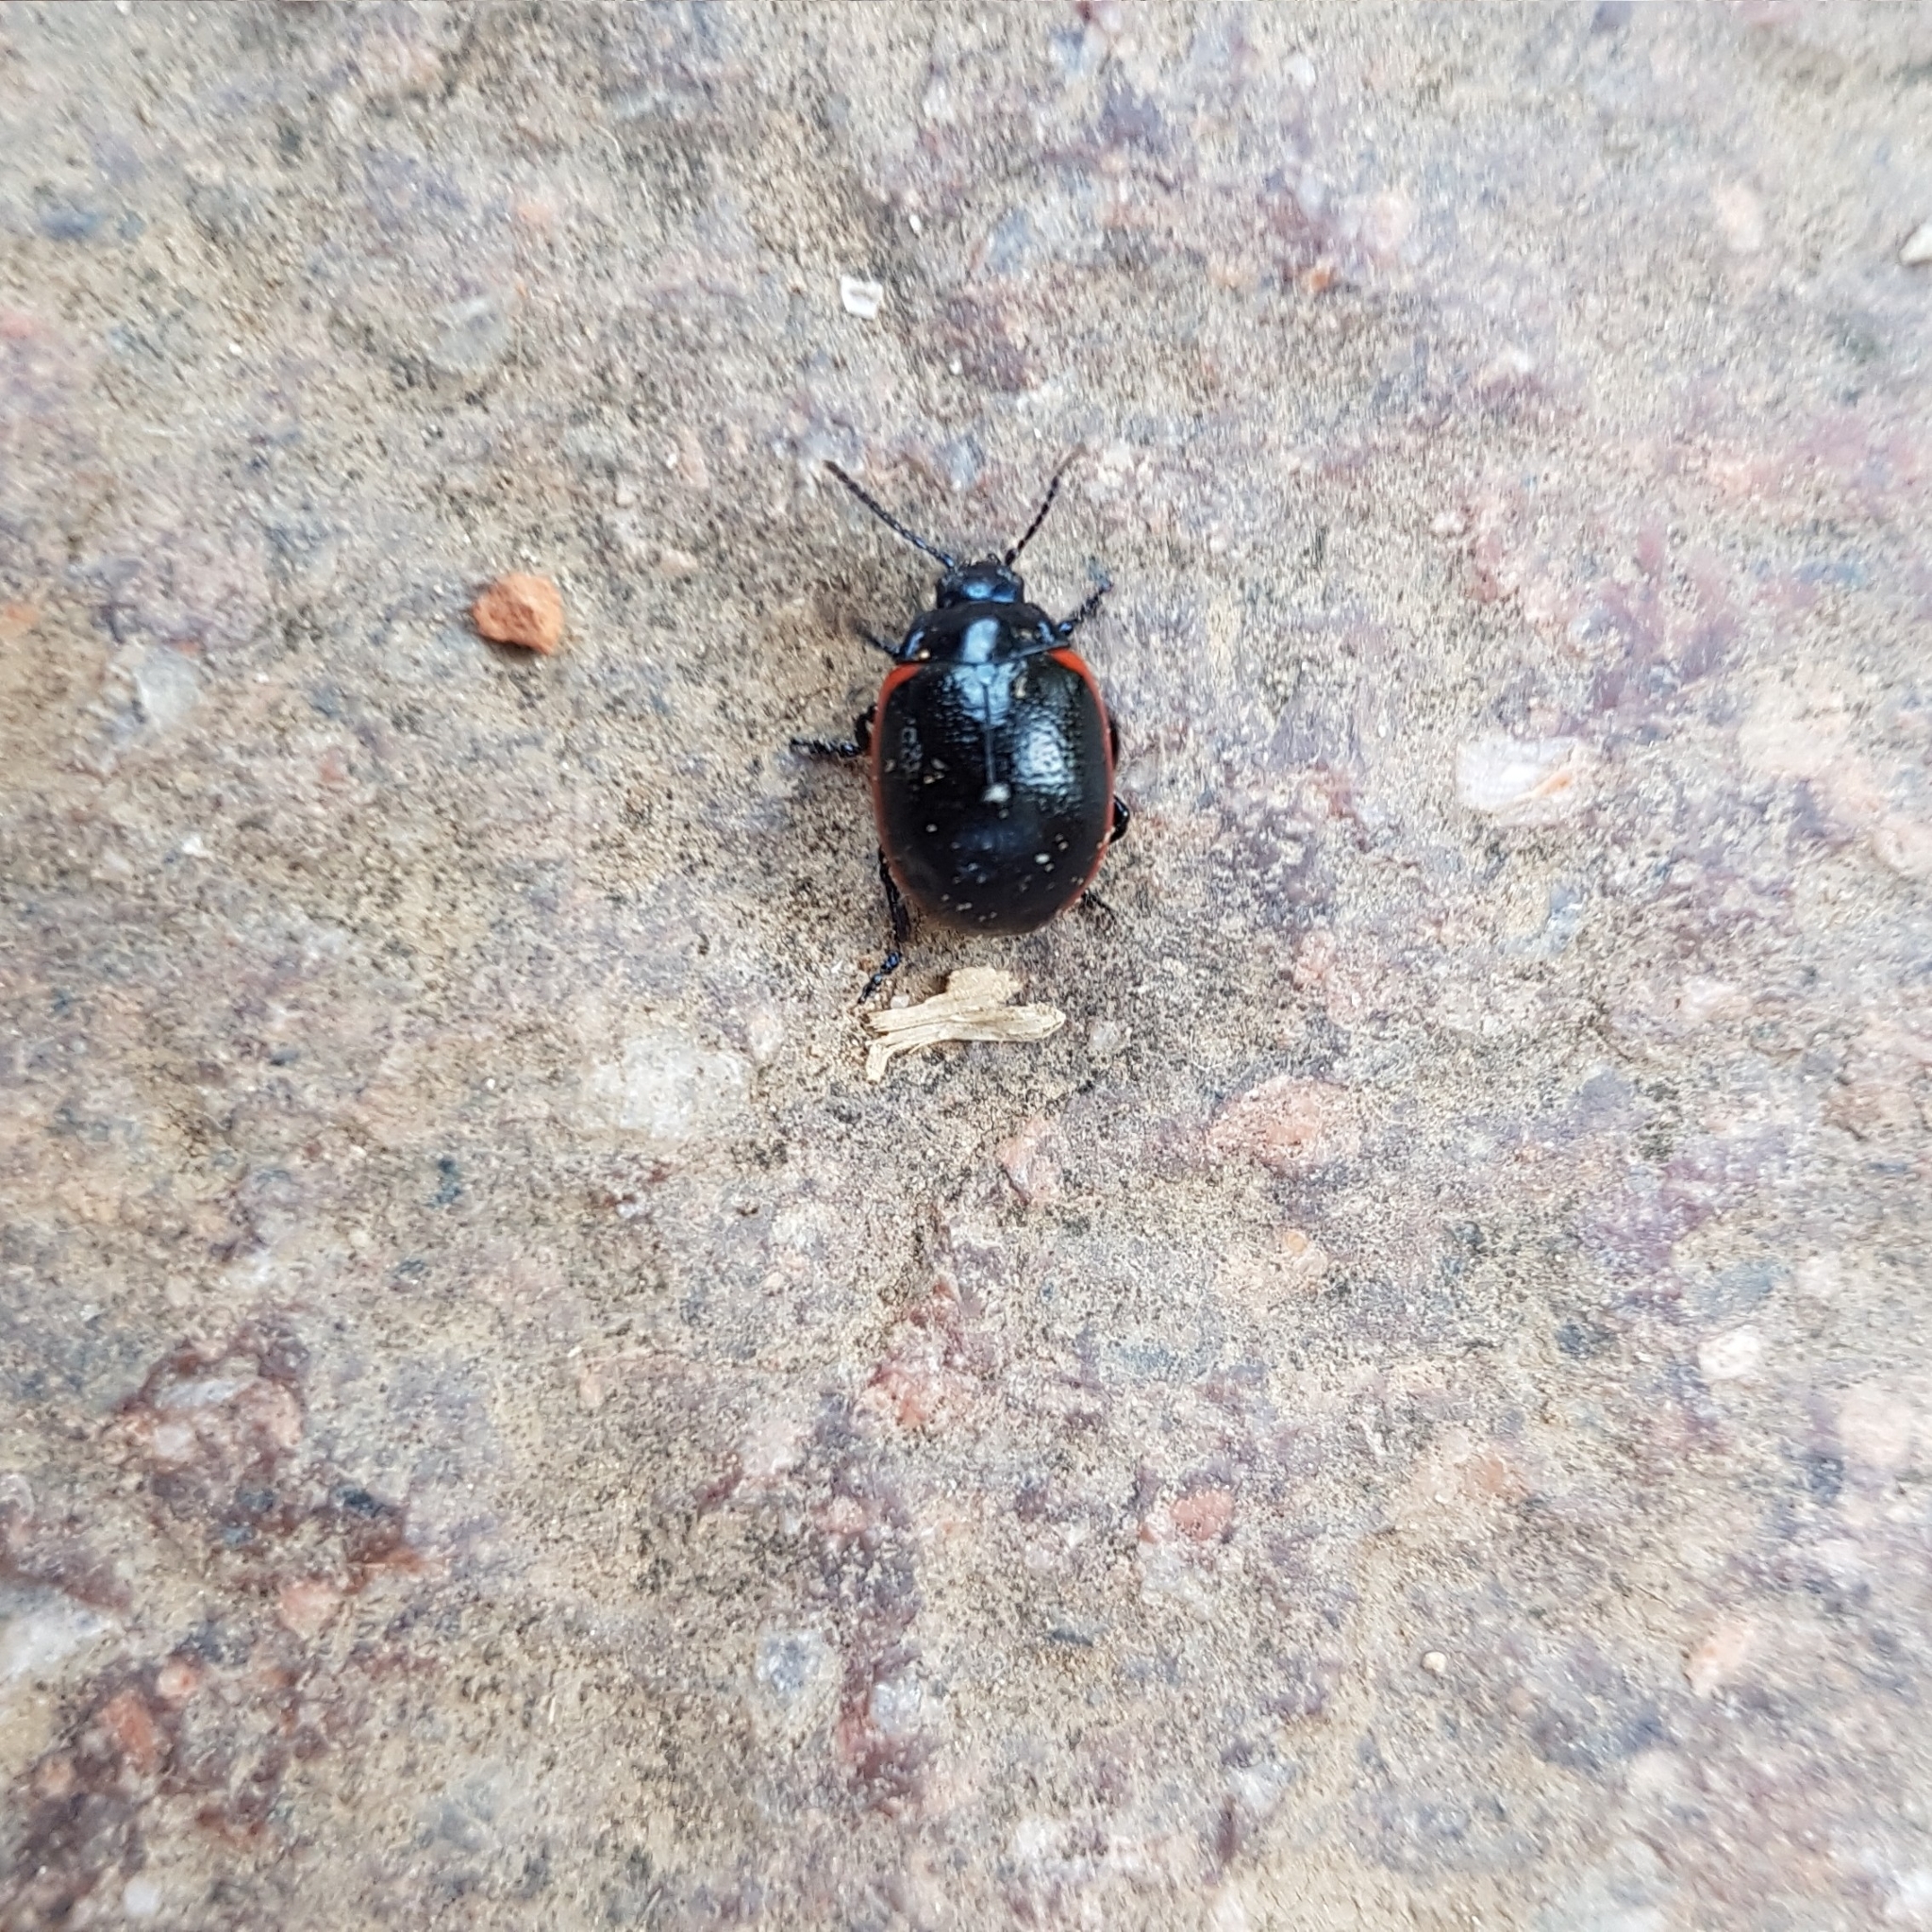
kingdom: Animalia
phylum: Arthropoda
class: Insecta
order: Coleoptera
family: Chrysomelidae
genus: Chrysolina
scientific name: Chrysolina rossia
